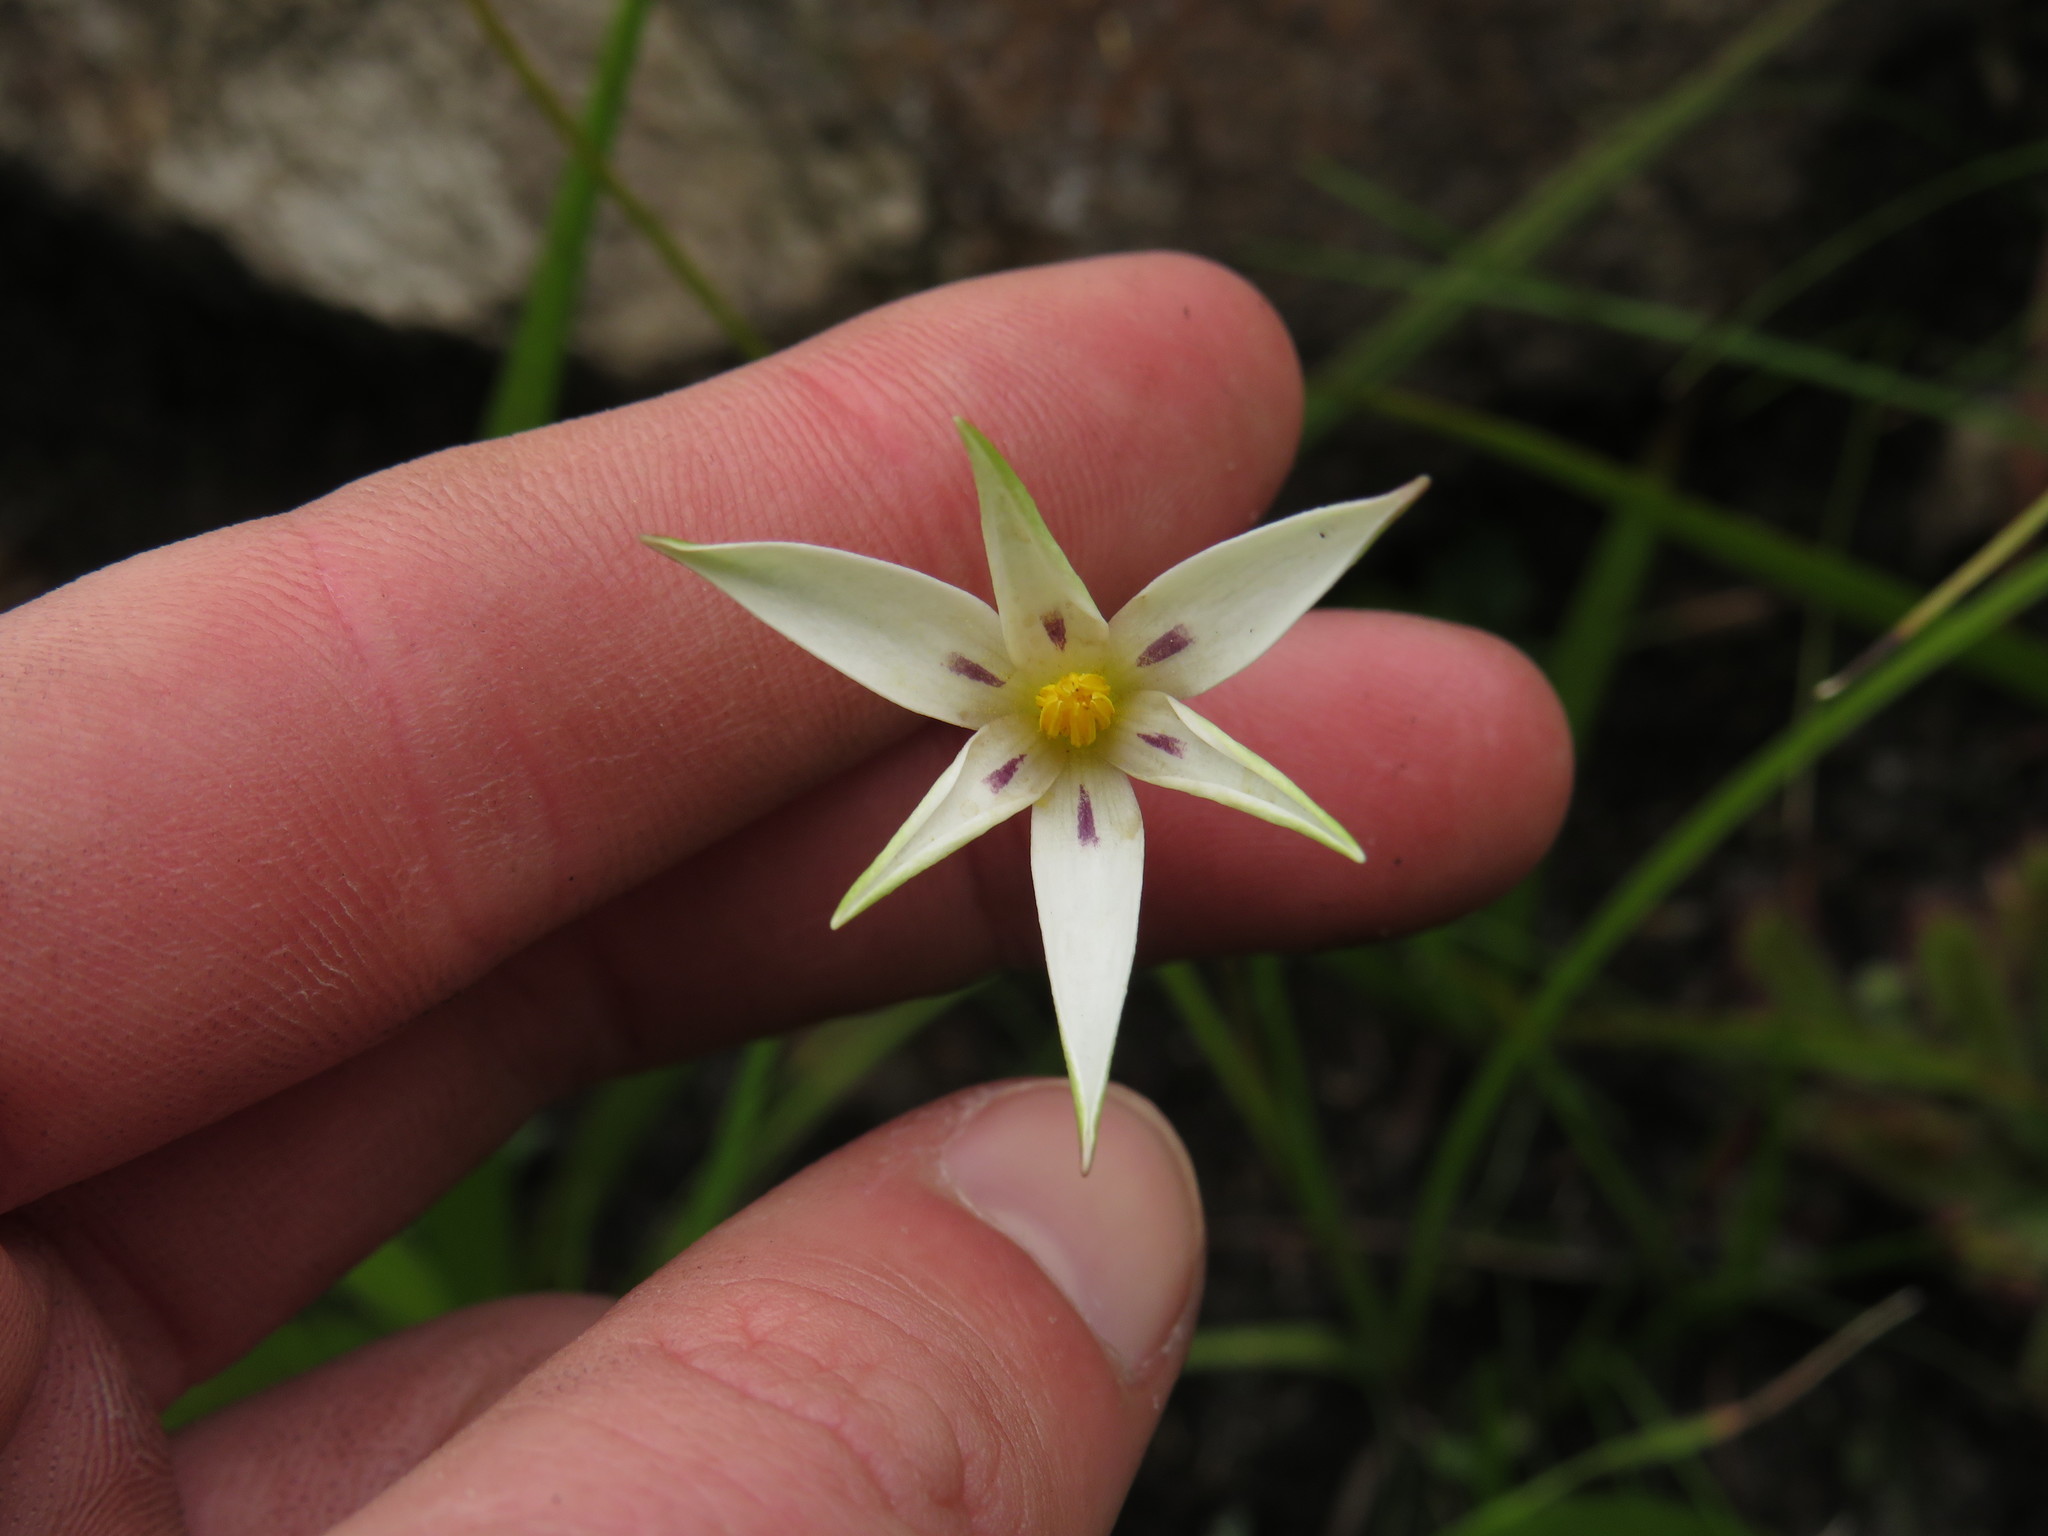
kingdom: Plantae
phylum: Tracheophyta
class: Liliopsida
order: Asparagales
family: Hypoxidaceae
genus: Pauridia
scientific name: Pauridia capensis
